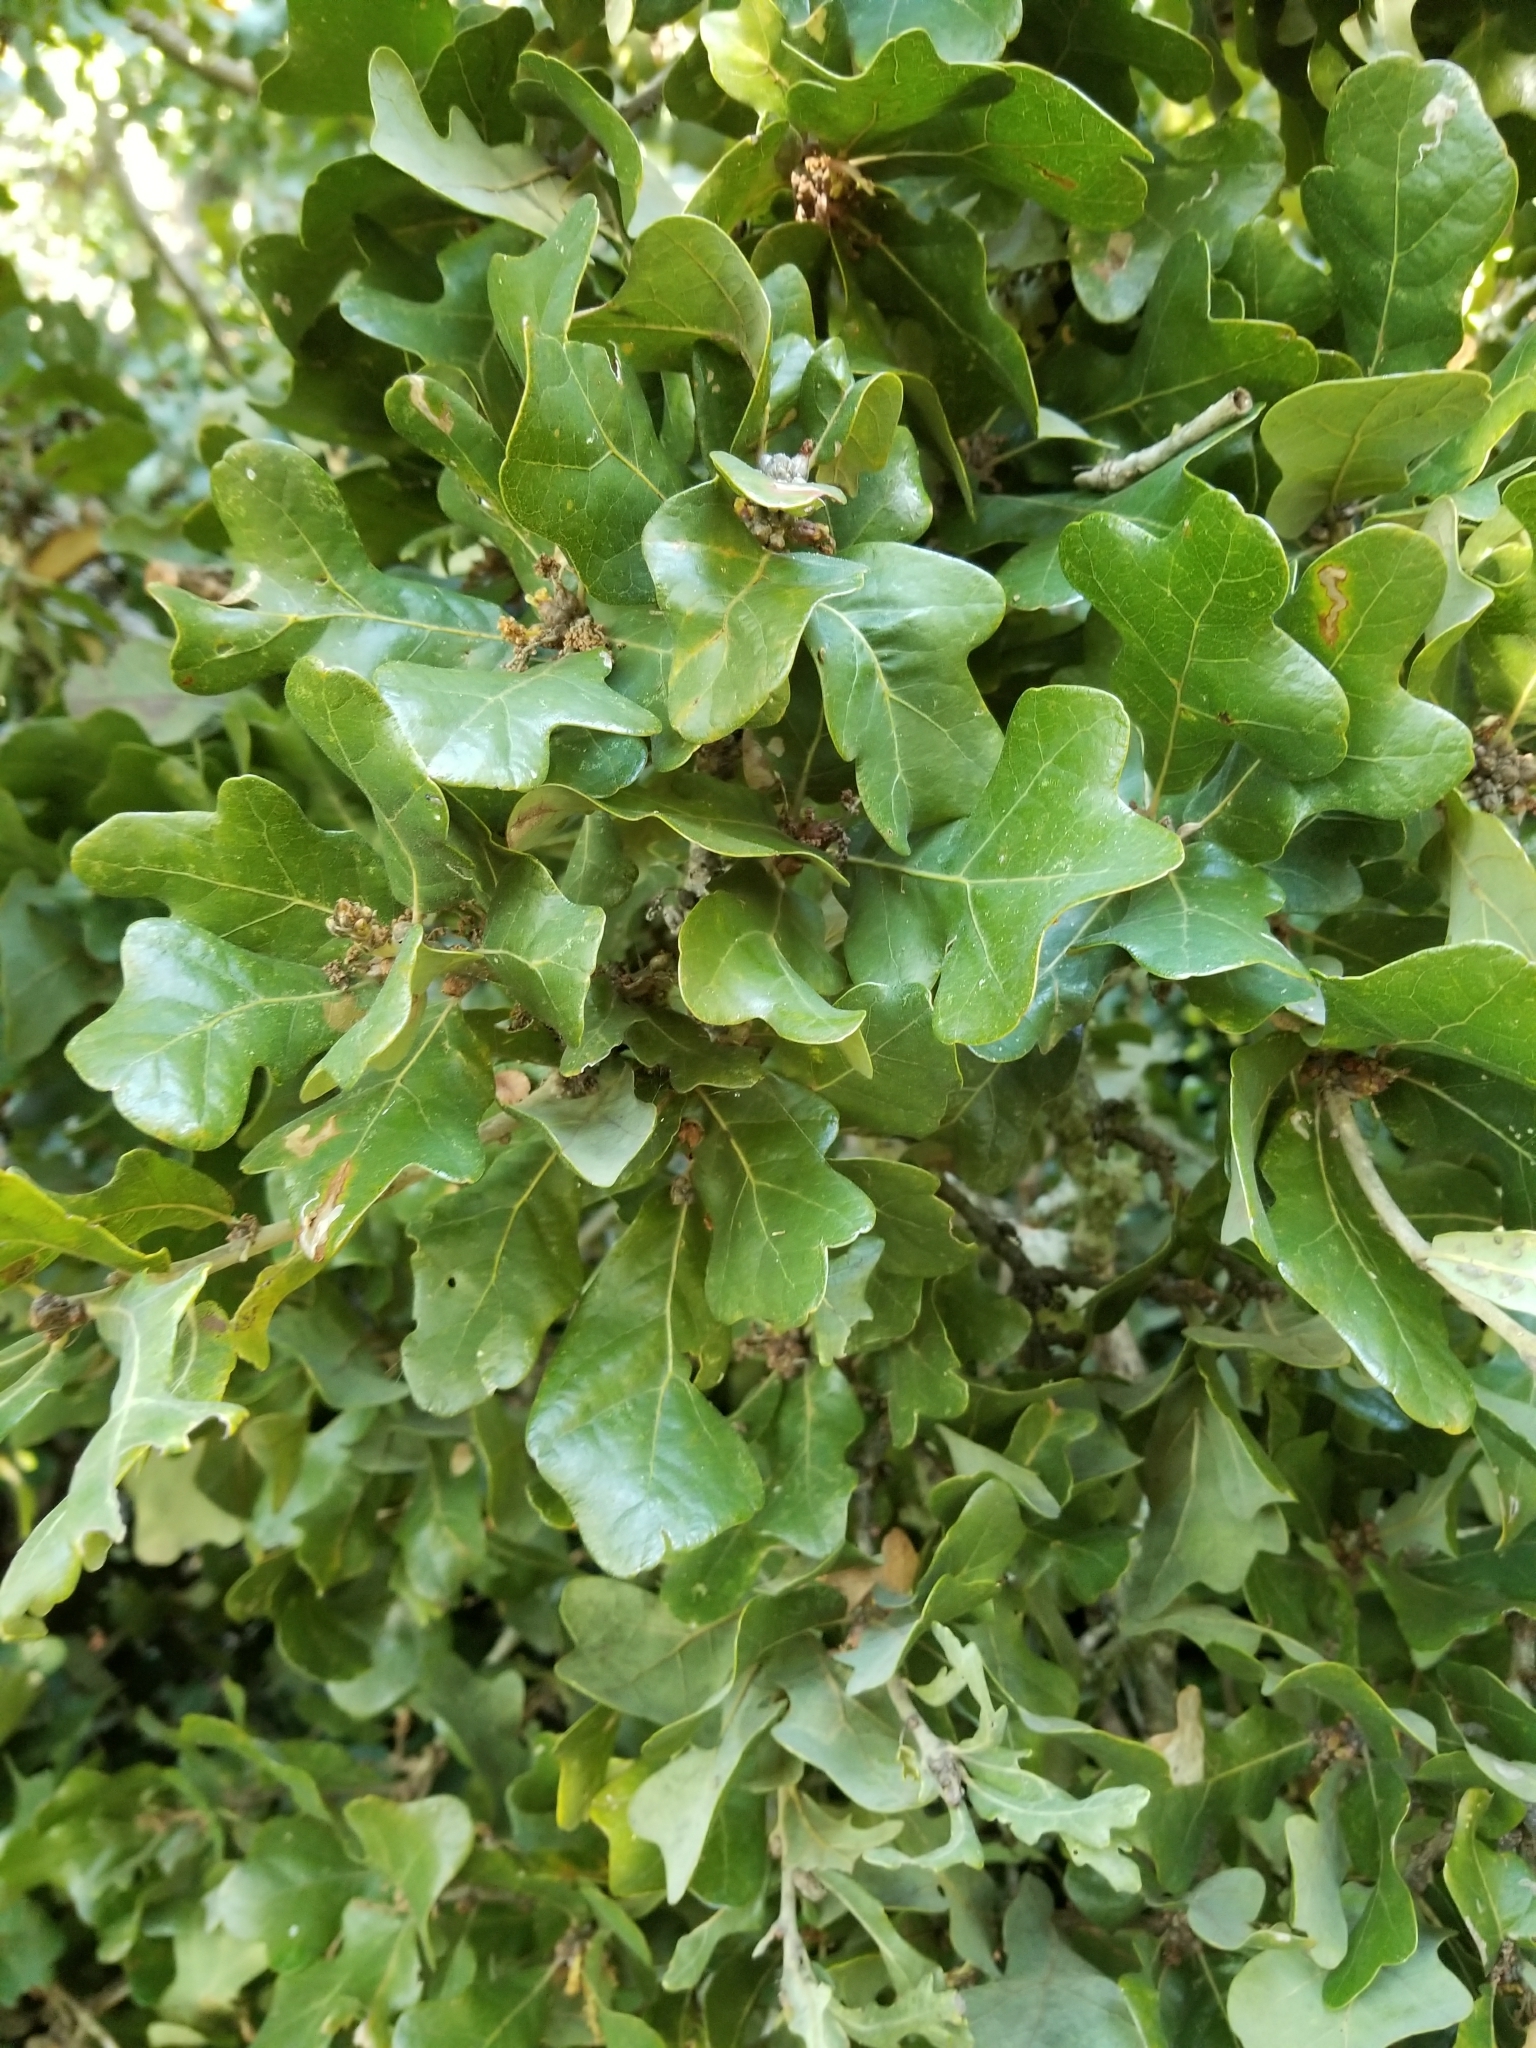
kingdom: Plantae
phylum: Tracheophyta
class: Magnoliopsida
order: Fagales
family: Fagaceae
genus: Quercus
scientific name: Quercus stellata
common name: Post oak
